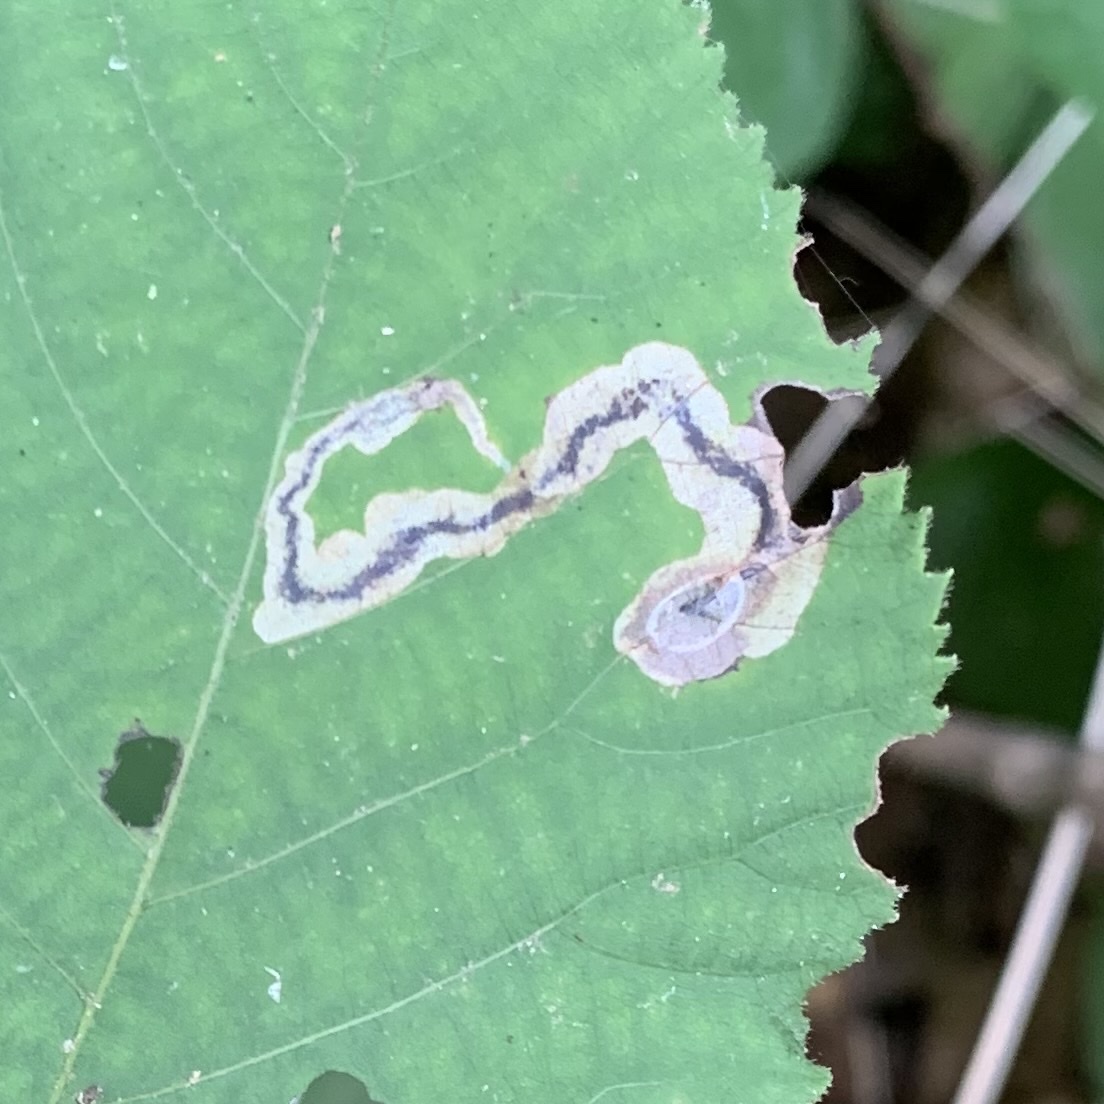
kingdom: Animalia
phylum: Arthropoda
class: Insecta
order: Lepidoptera
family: Gracillariidae
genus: Cameraria
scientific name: Cameraria caryaefoliella
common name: Pecan leafminer moth
